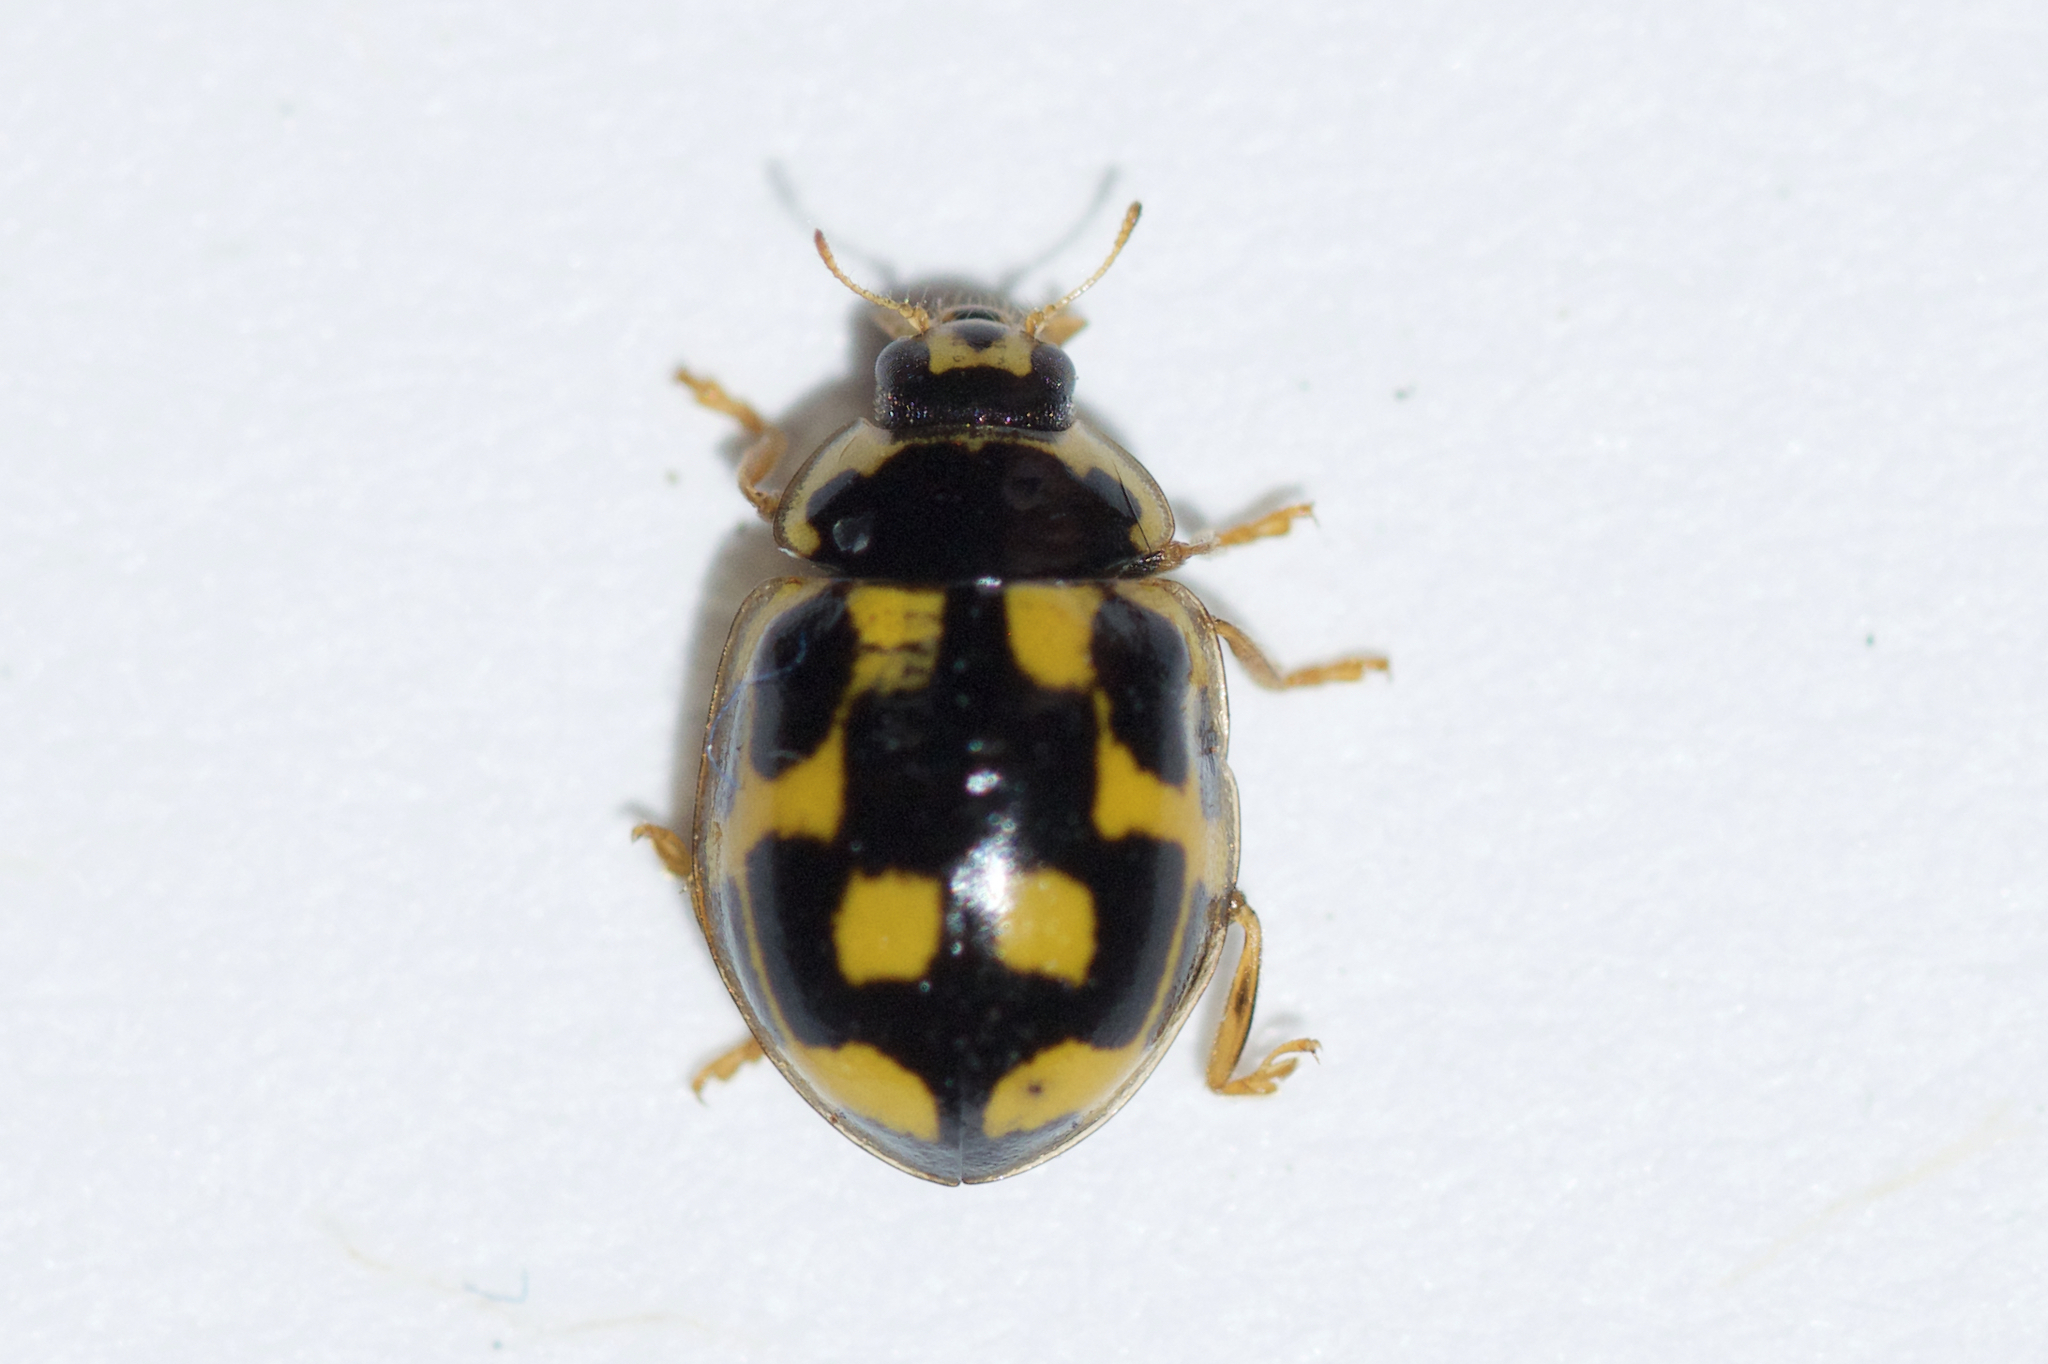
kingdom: Animalia
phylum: Arthropoda
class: Insecta
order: Coleoptera
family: Coccinellidae
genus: Propylaea
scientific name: Propylaea quatuordecimpunctata
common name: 14-spotted ladybird beetle
